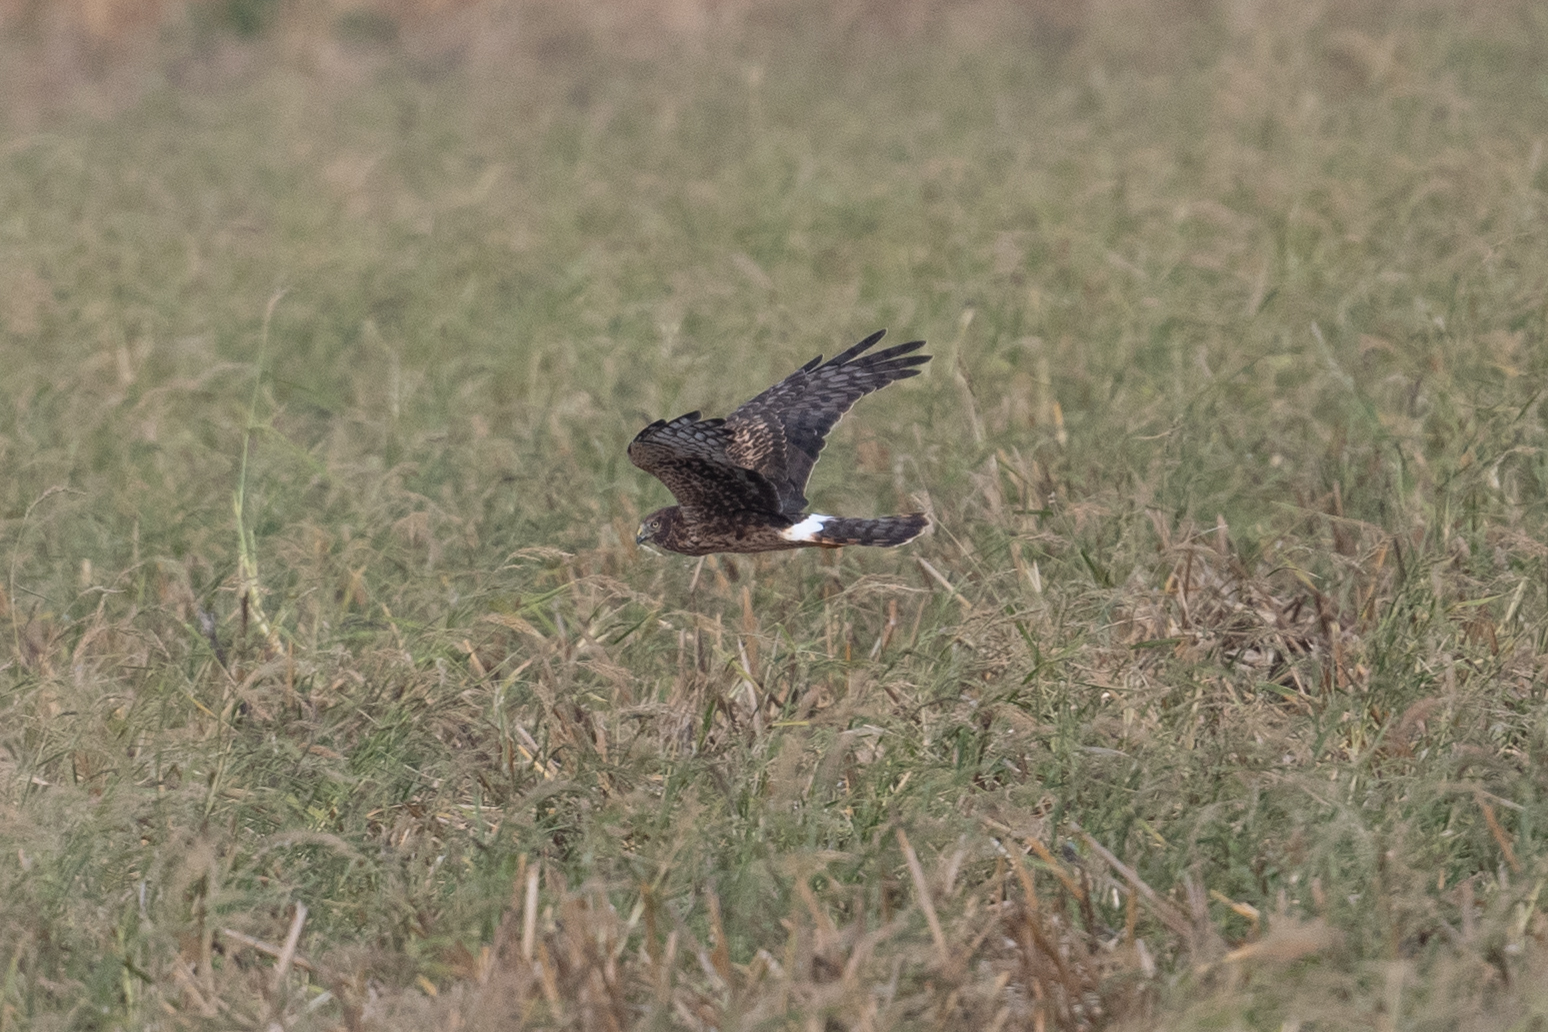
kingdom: Animalia
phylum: Chordata
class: Aves
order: Accipitriformes
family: Accipitridae
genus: Circus
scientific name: Circus cyaneus
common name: Hen harrier
